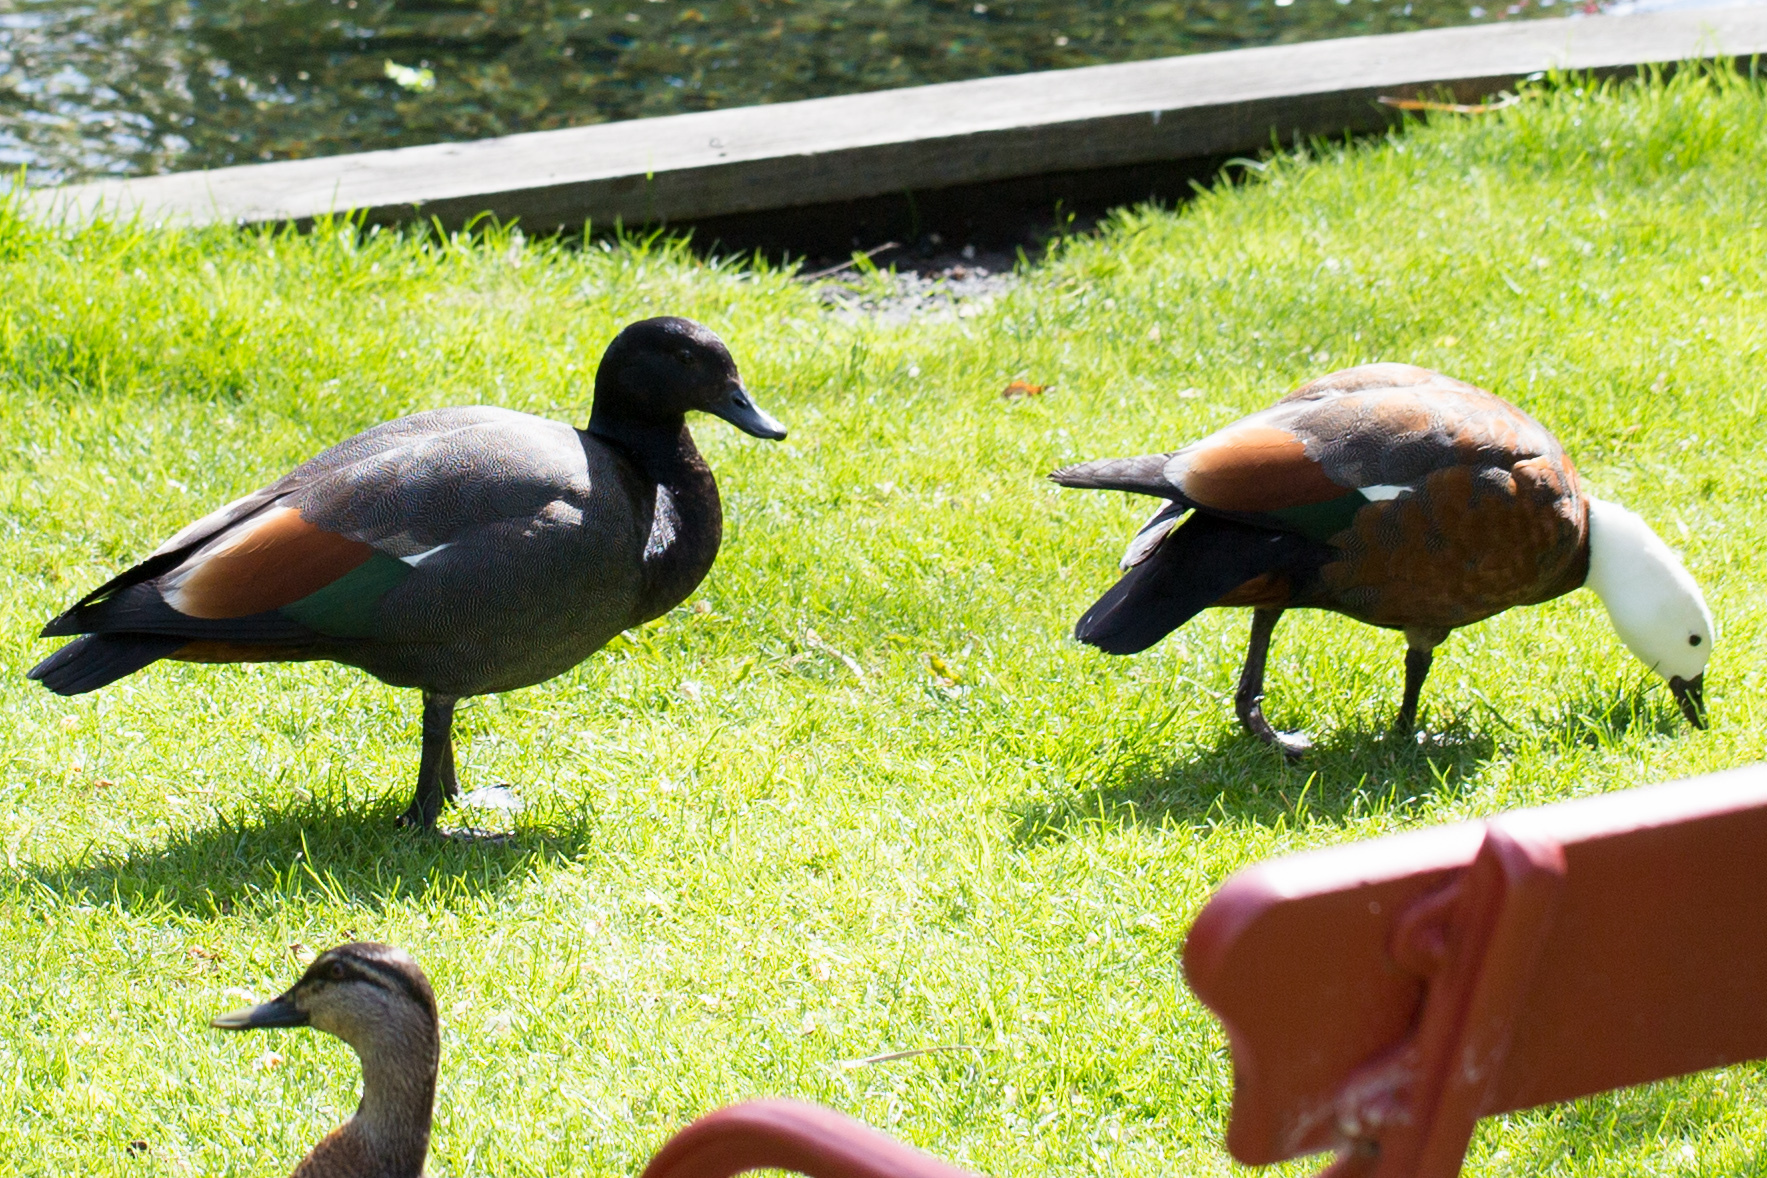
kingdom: Animalia
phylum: Chordata
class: Aves
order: Anseriformes
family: Anatidae
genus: Tadorna
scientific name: Tadorna variegata
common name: Paradise shelduck
